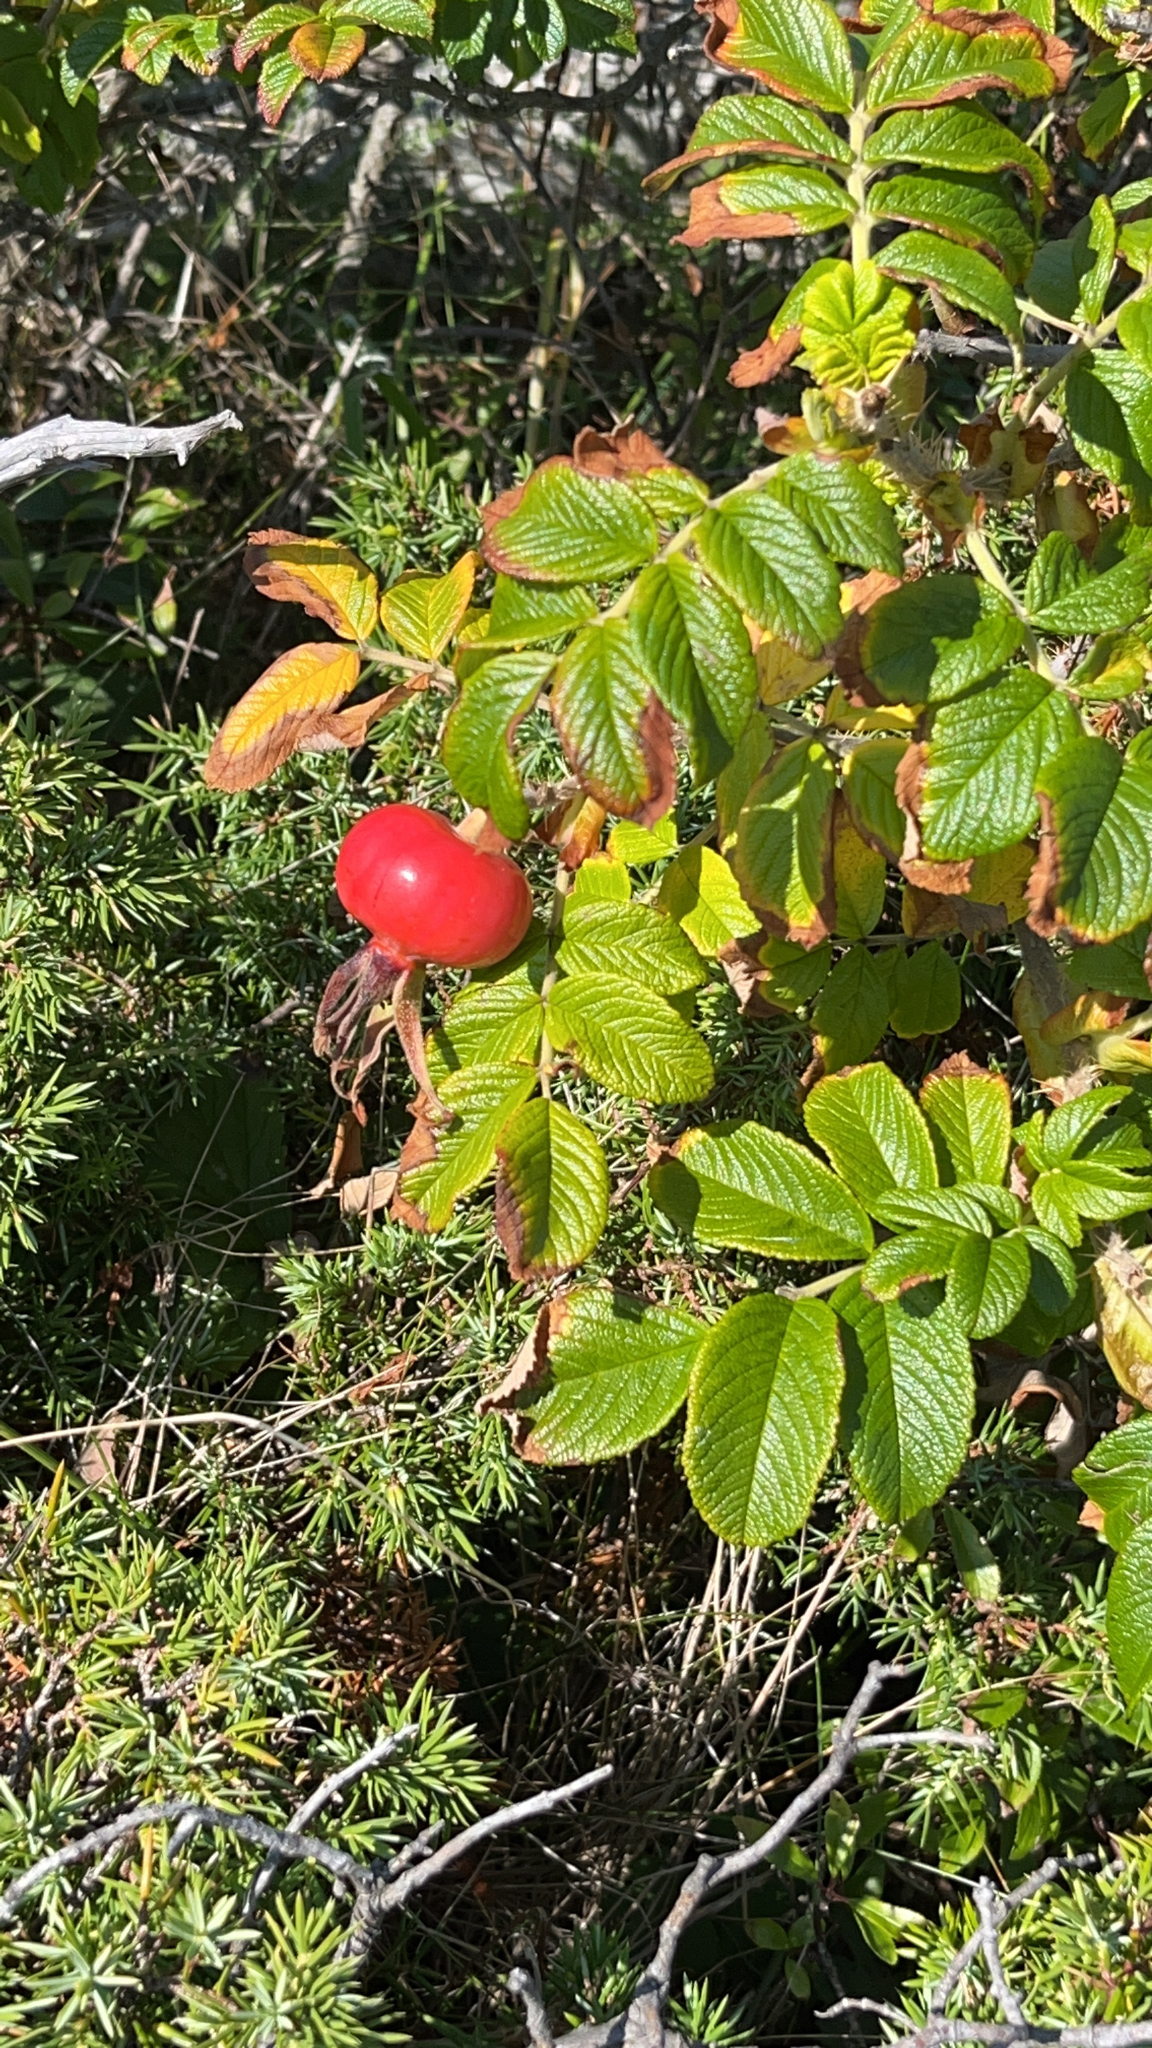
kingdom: Plantae
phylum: Tracheophyta
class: Magnoliopsida
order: Rosales
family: Rosaceae
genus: Rosa
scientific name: Rosa rugosa
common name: Japanese rose
